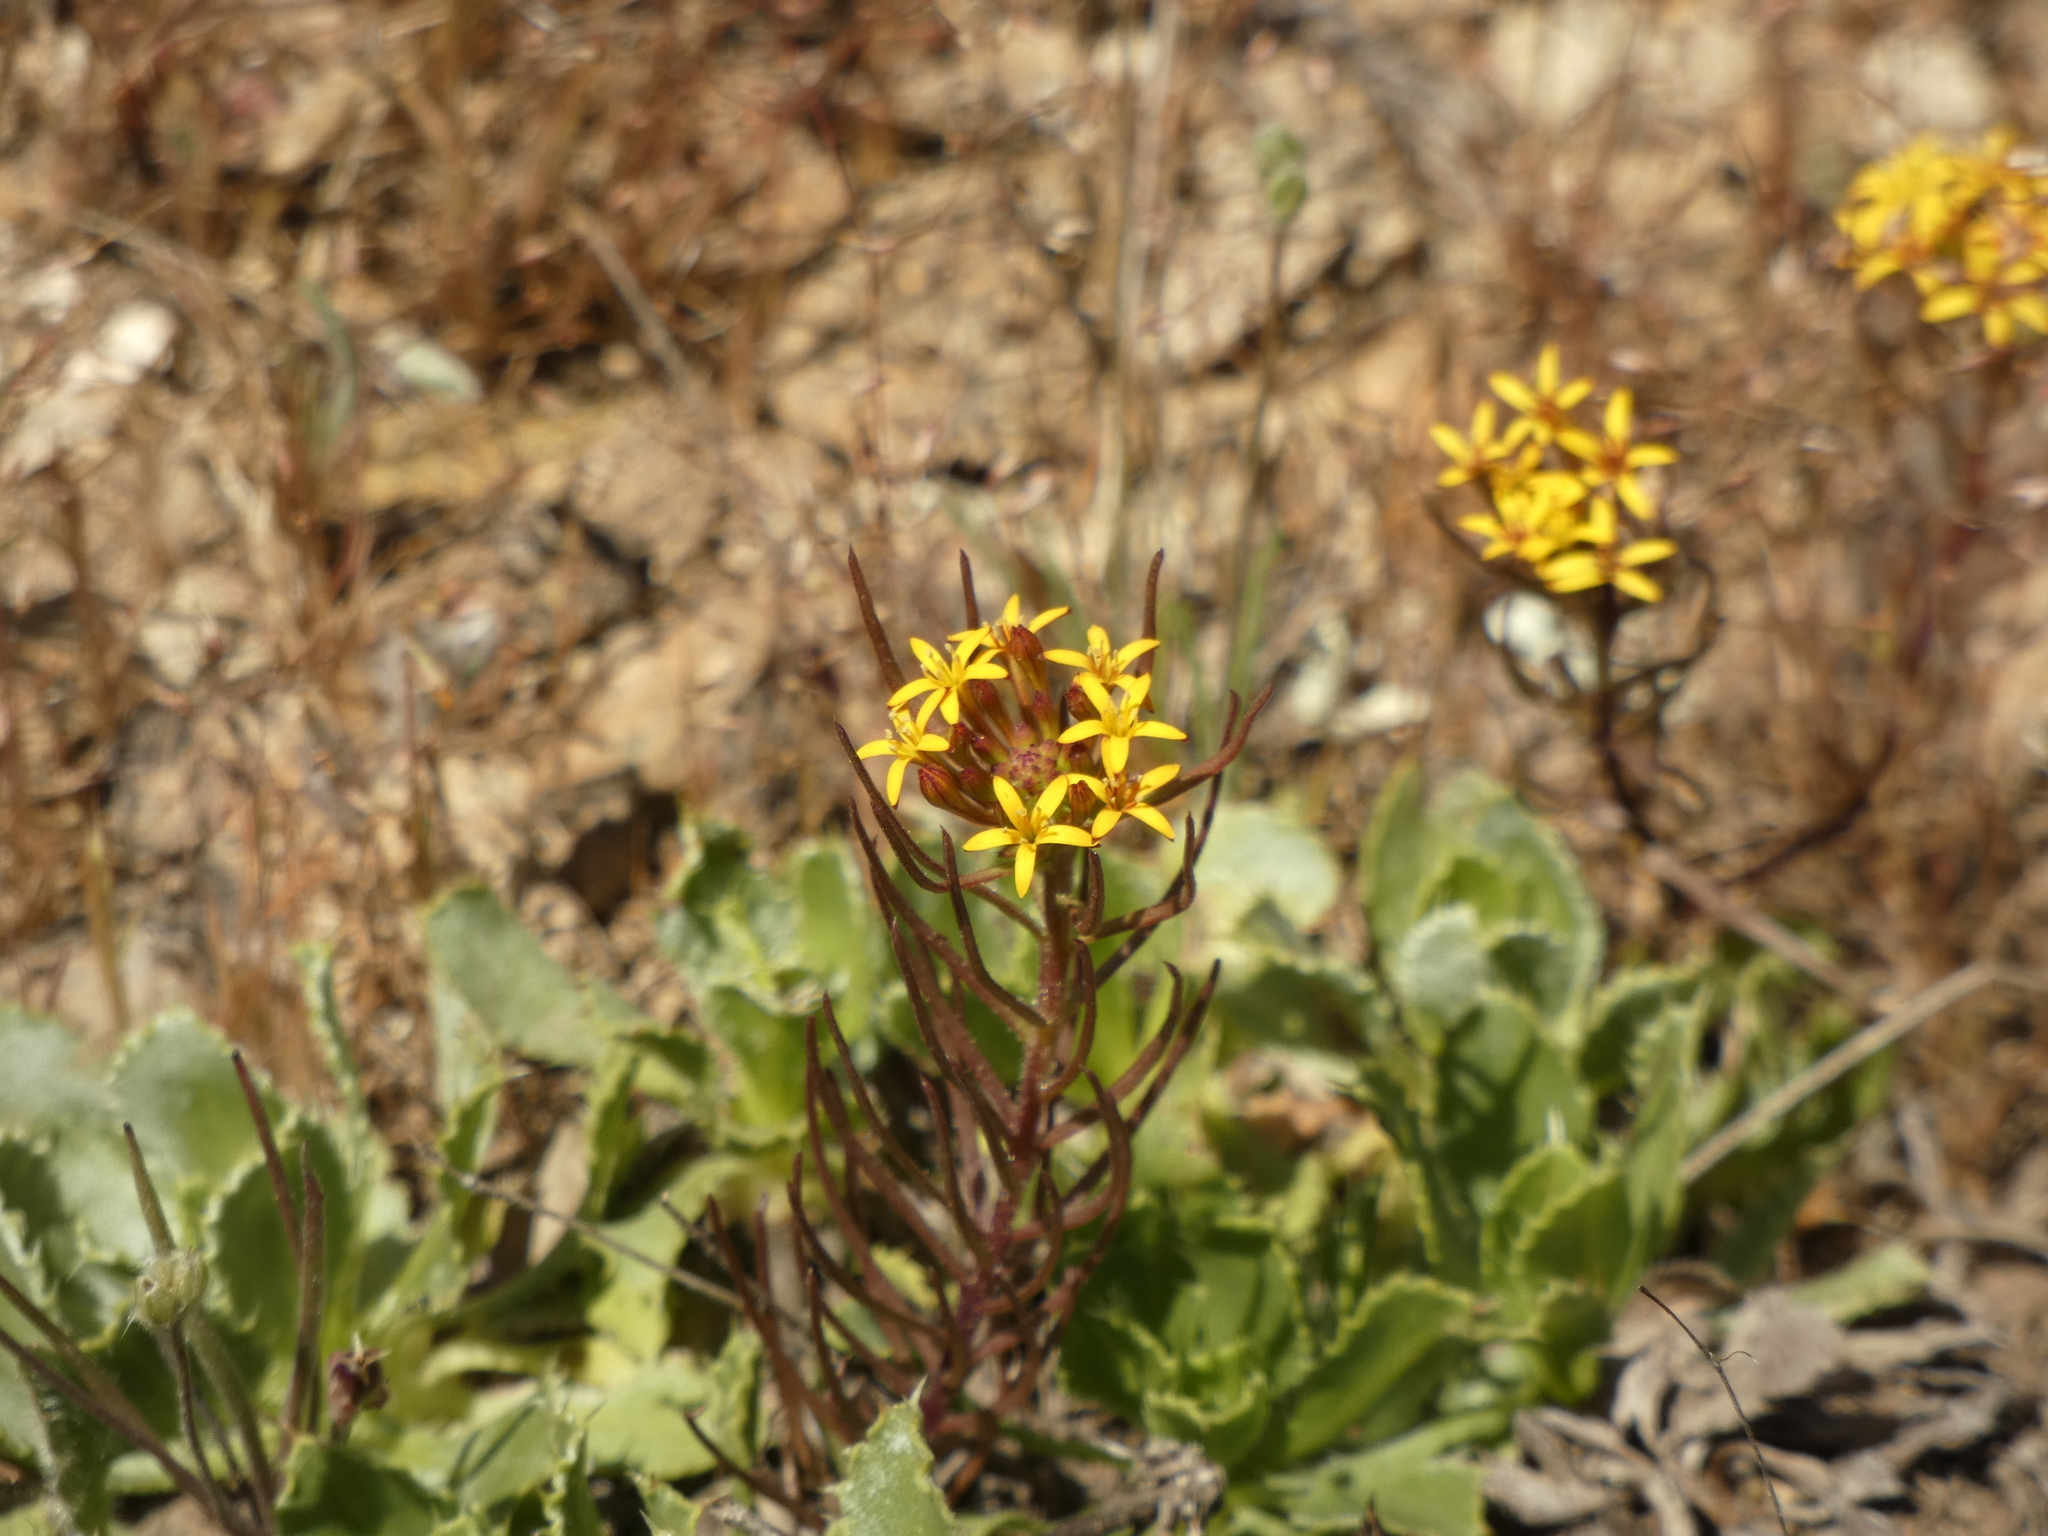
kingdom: Plantae
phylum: Tracheophyta
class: Magnoliopsida
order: Santalales
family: Schoepfiaceae
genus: Quinchamalium
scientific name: Quinchamalium chilense
